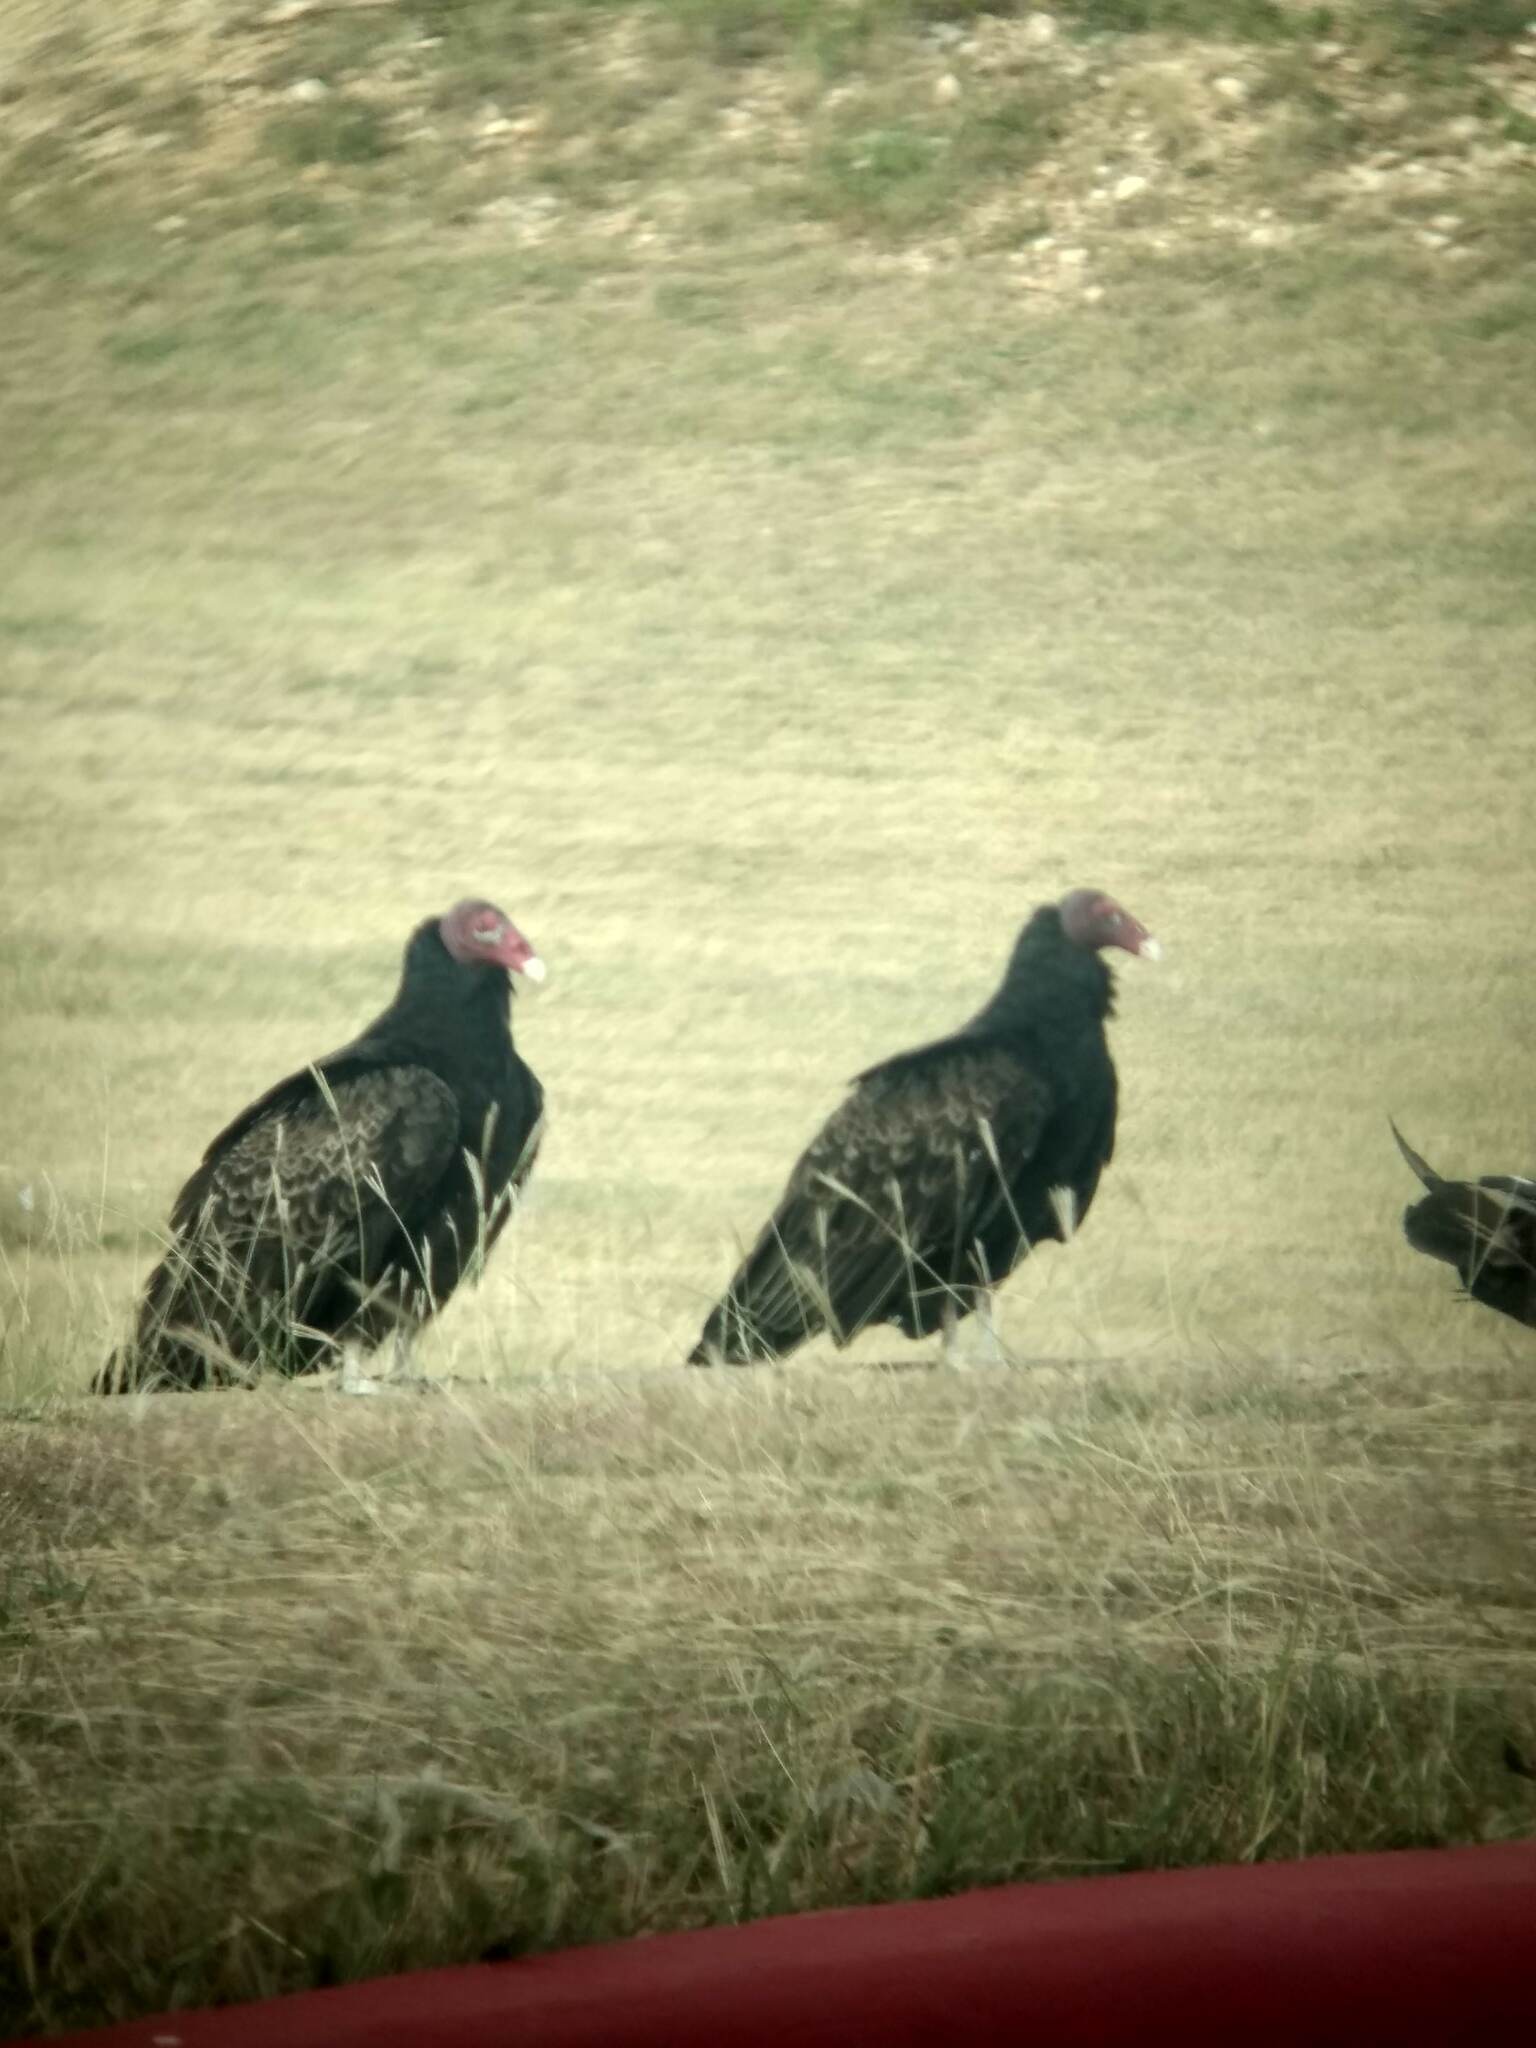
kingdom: Animalia
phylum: Chordata
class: Aves
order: Accipitriformes
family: Cathartidae
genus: Cathartes
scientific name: Cathartes aura
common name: Turkey vulture
